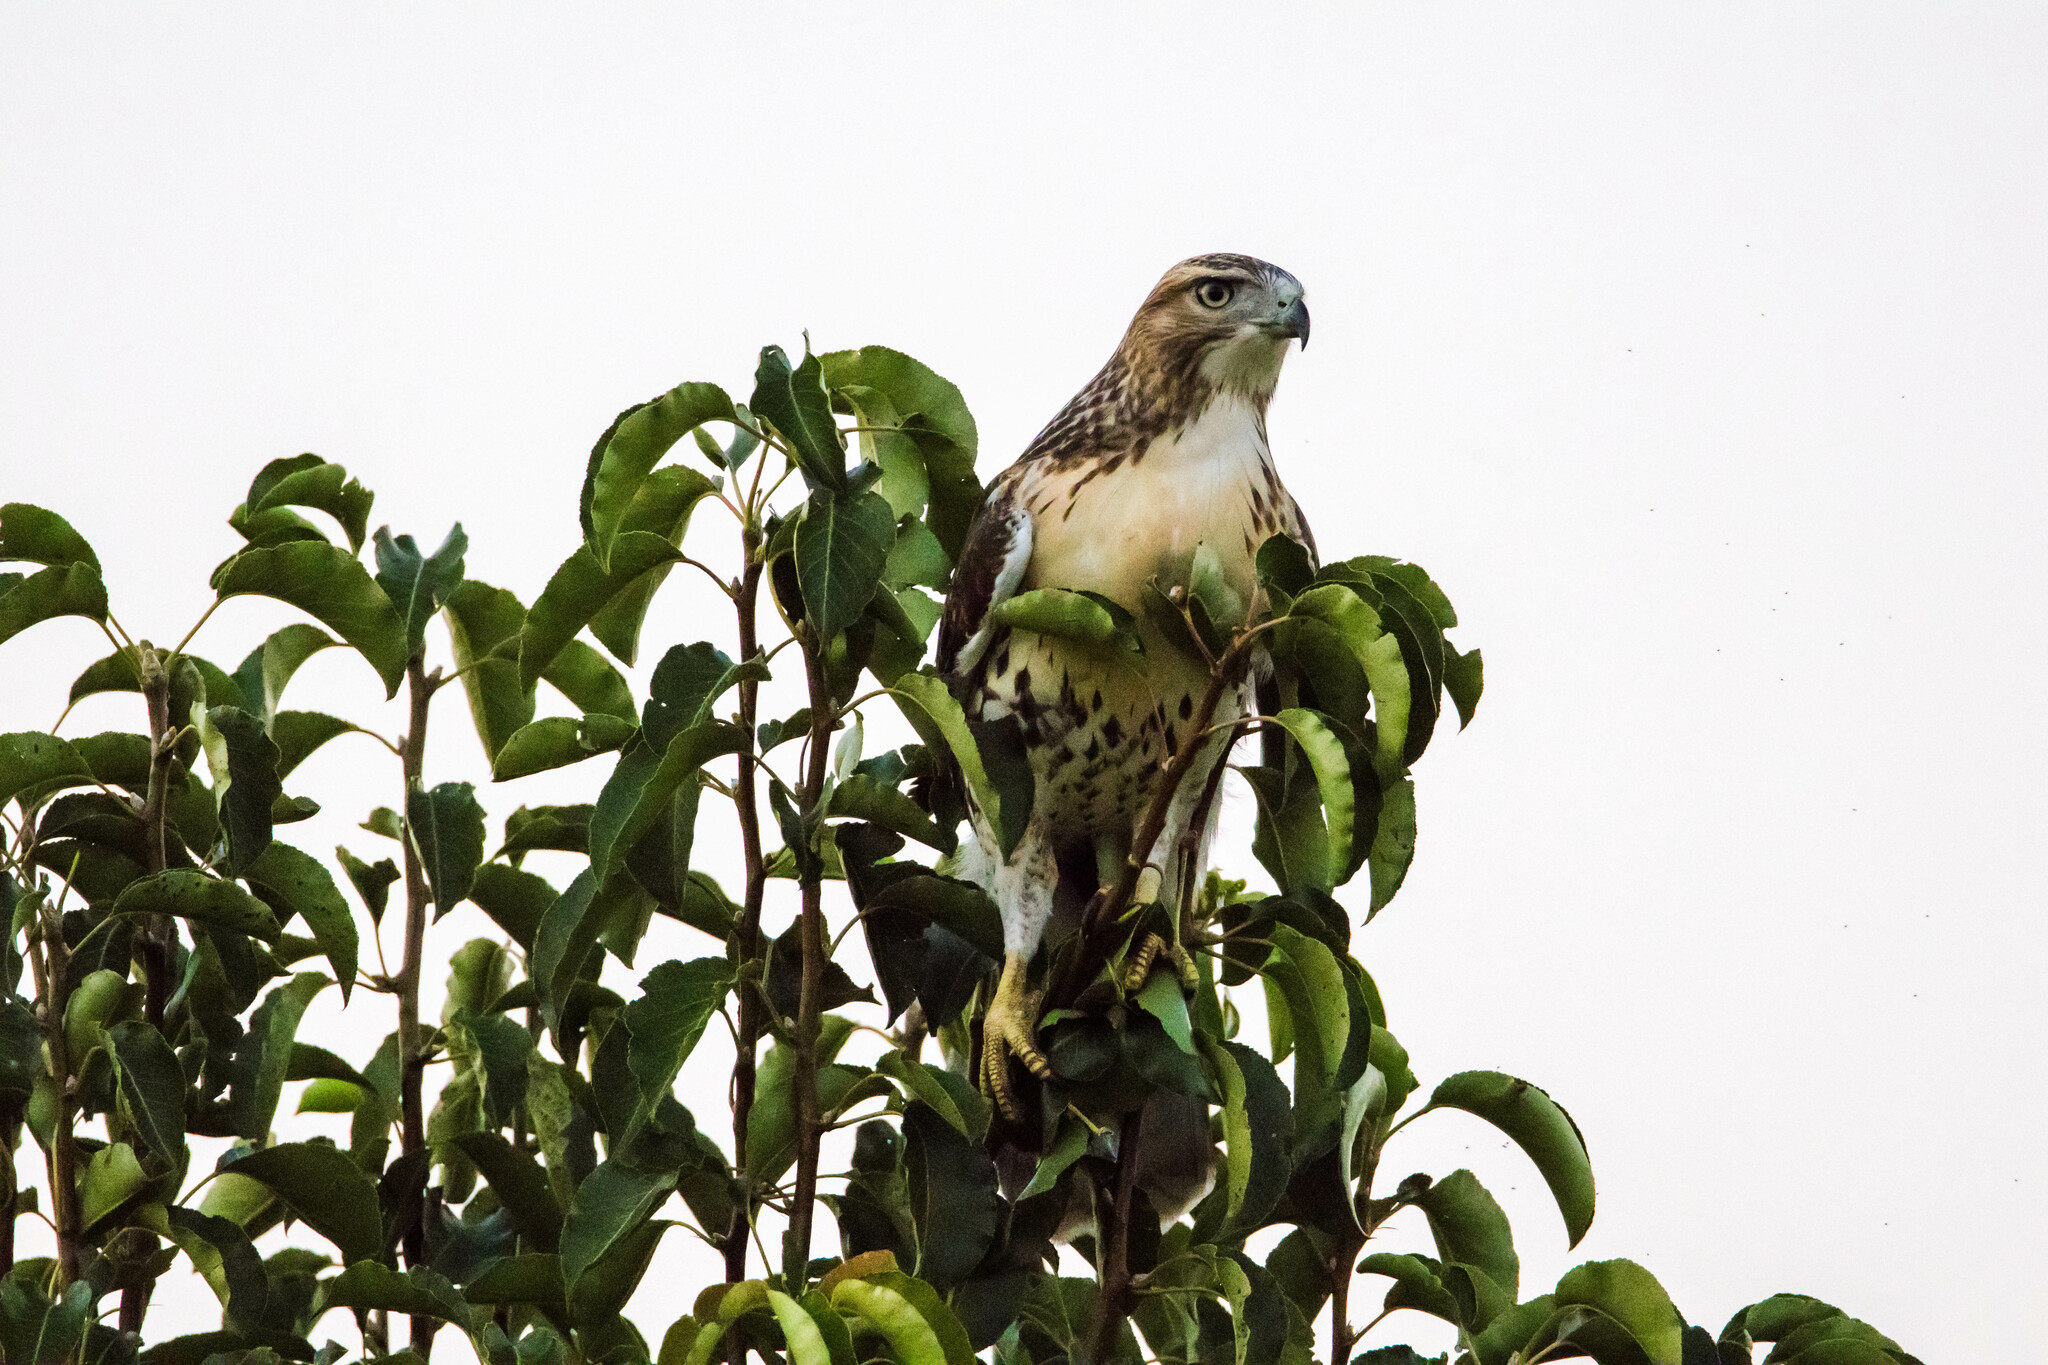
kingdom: Animalia
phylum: Chordata
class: Aves
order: Accipitriformes
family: Accipitridae
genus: Buteo
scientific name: Buteo jamaicensis
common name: Red-tailed hawk
